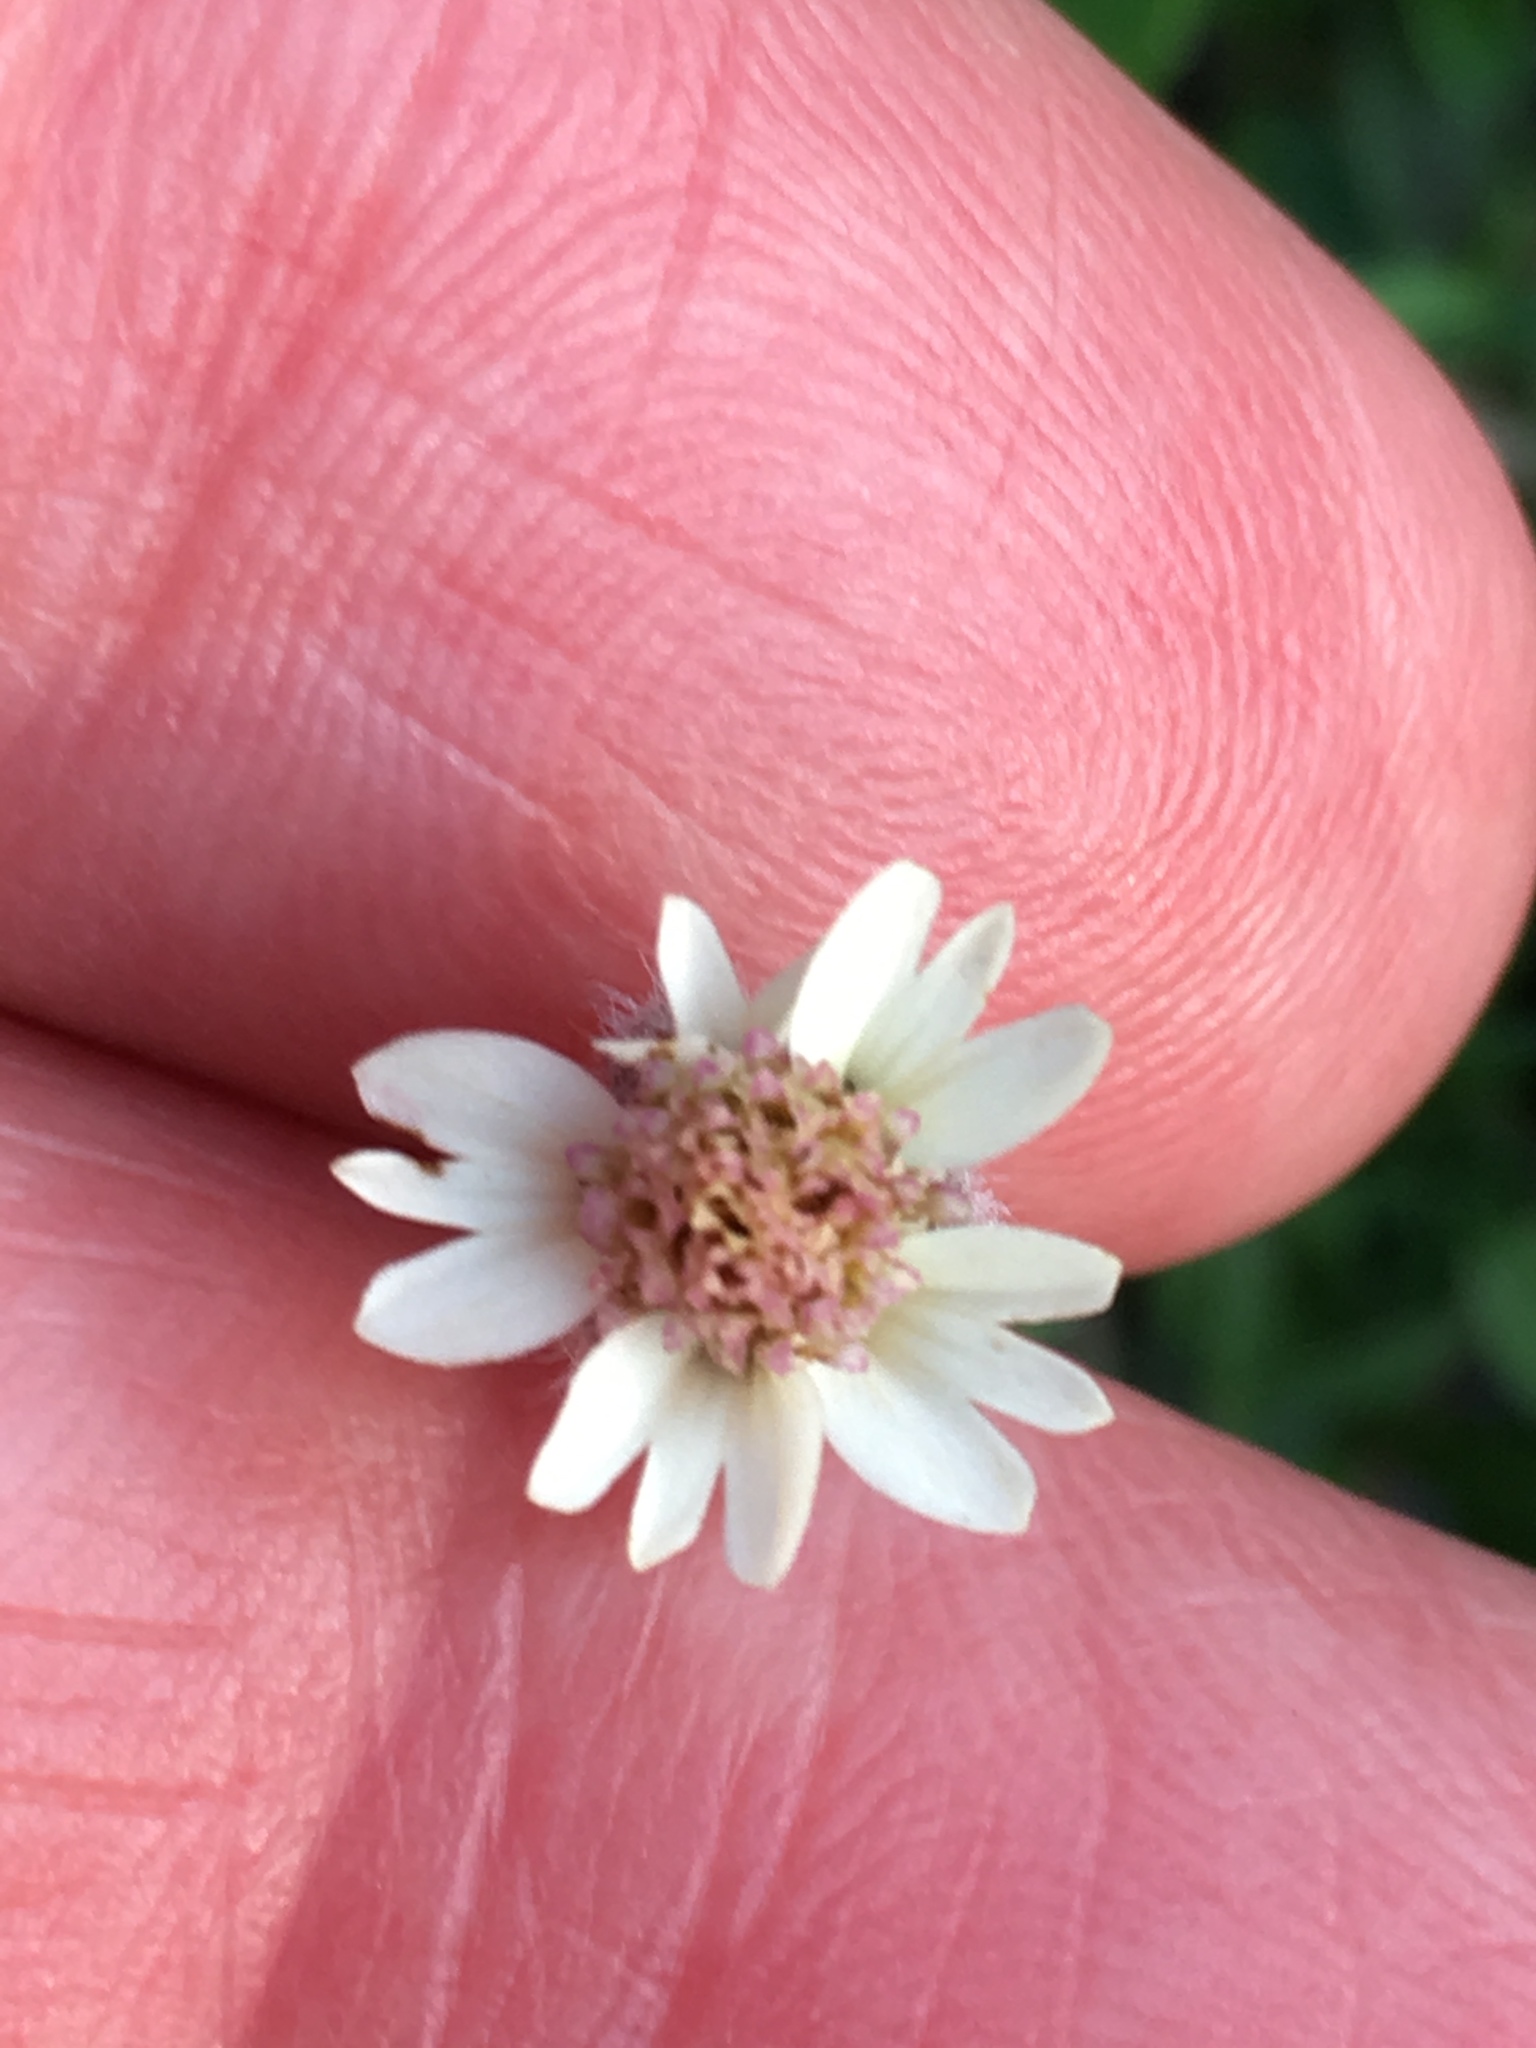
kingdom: Plantae
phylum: Tracheophyta
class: Magnoliopsida
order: Asterales
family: Asteraceae
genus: Tridax
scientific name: Tridax procumbens
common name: Coatbuttons
